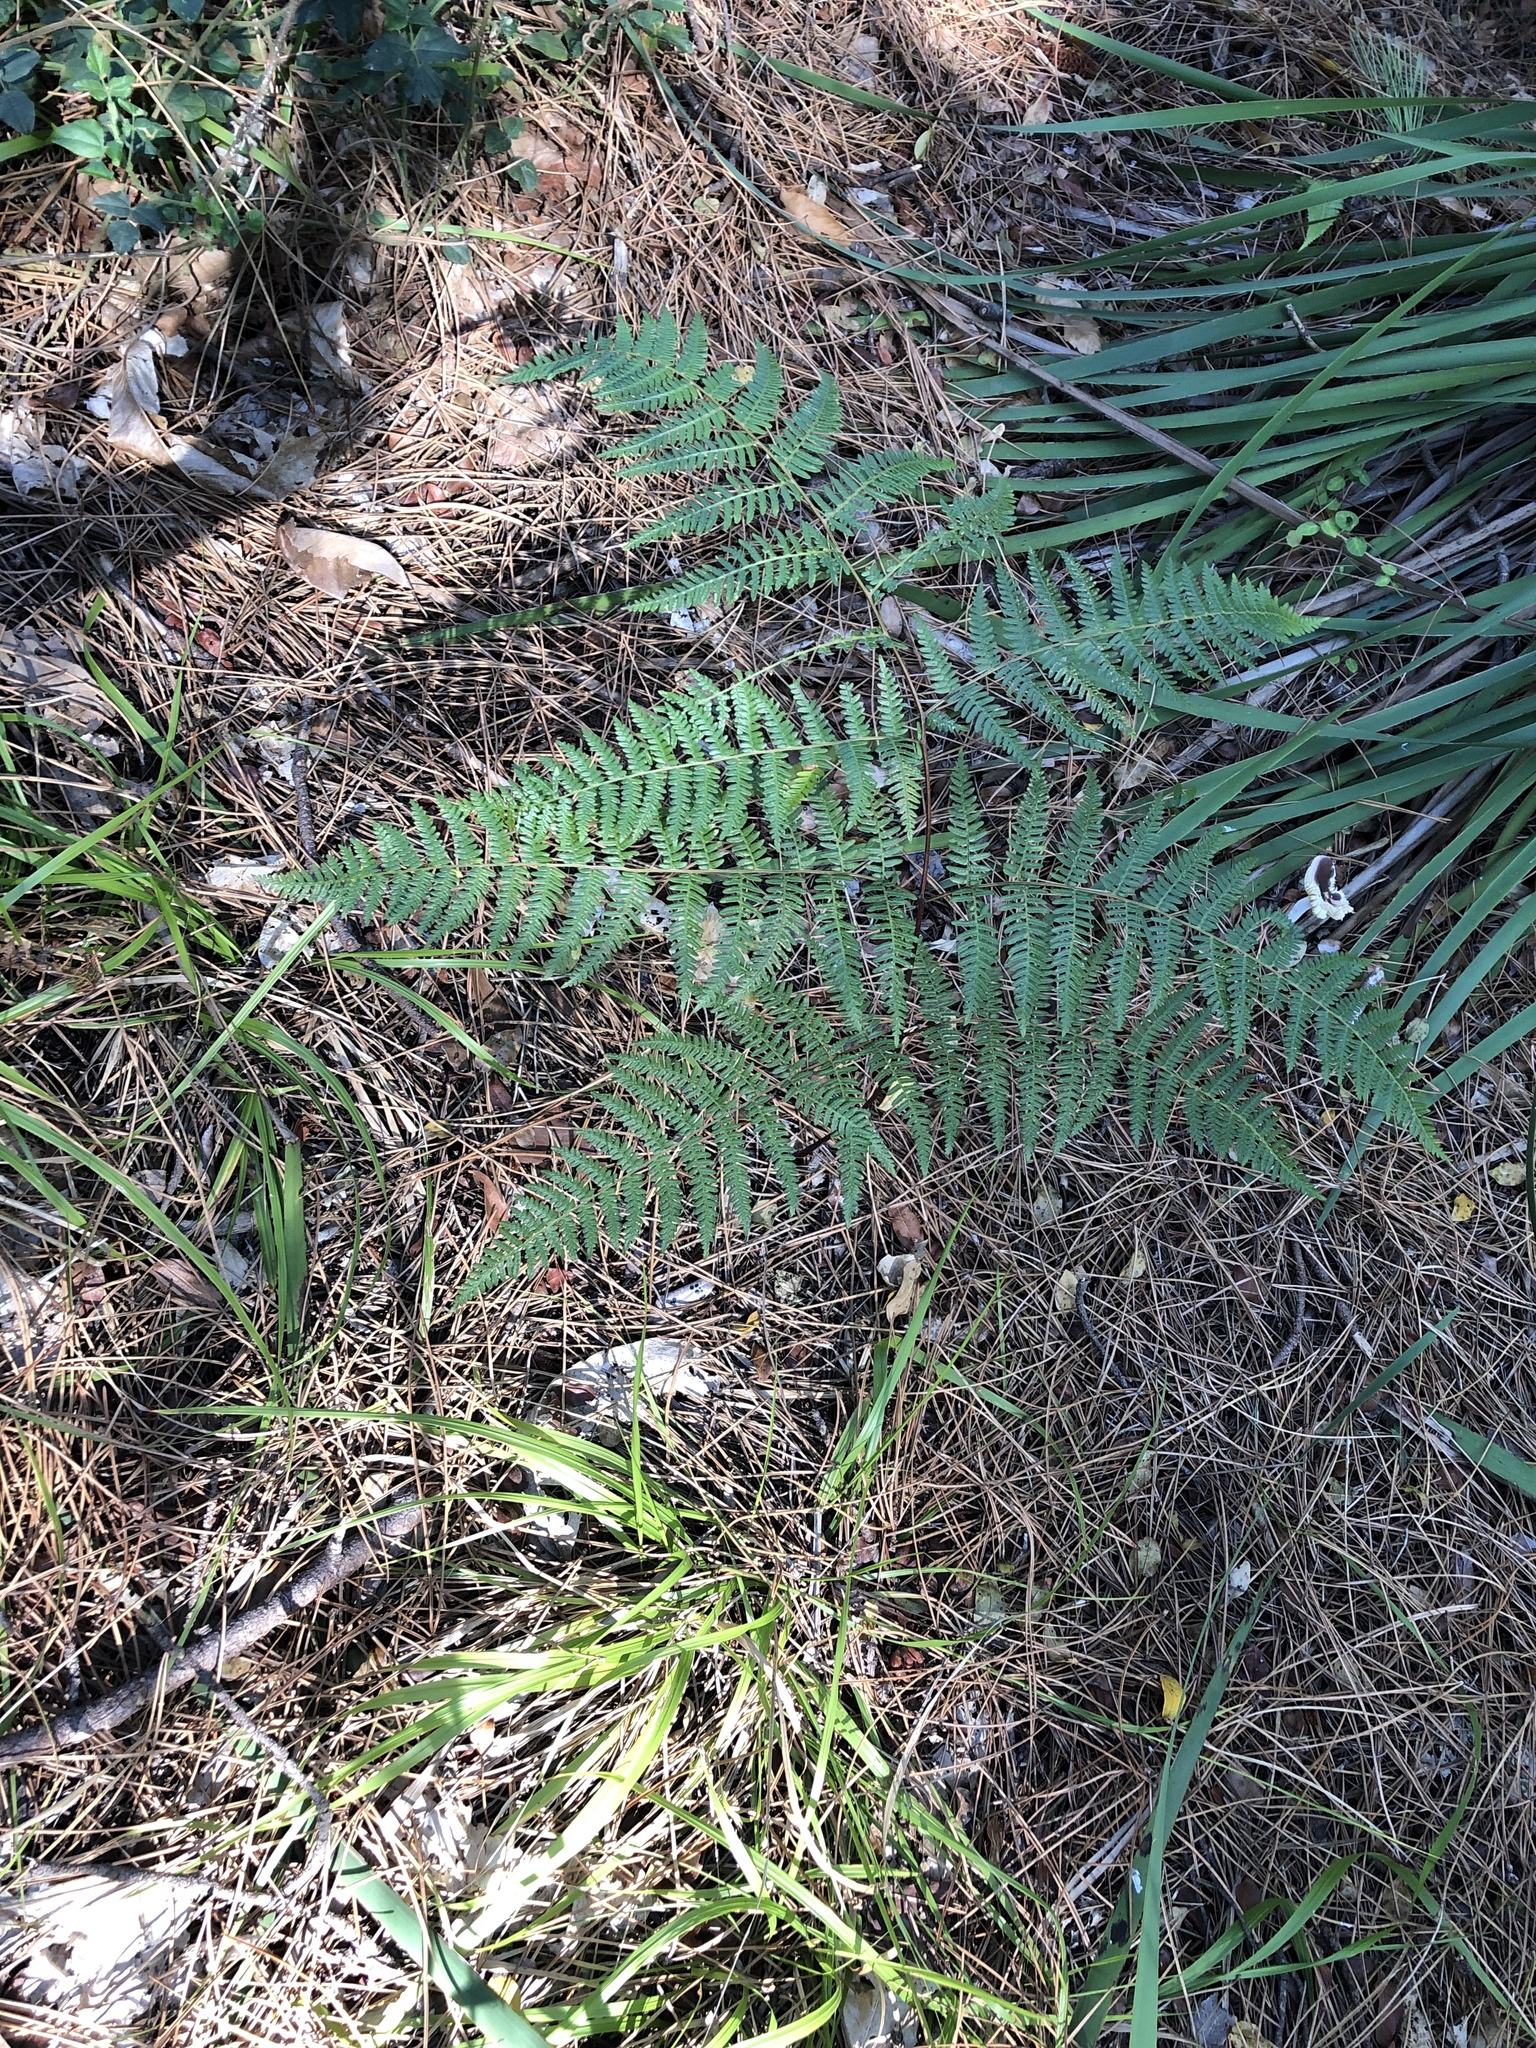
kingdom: Plantae
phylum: Tracheophyta
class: Polypodiopsida
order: Polypodiales
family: Dennstaedtiaceae
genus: Pteridium
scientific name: Pteridium aquilinum
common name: Bracken
